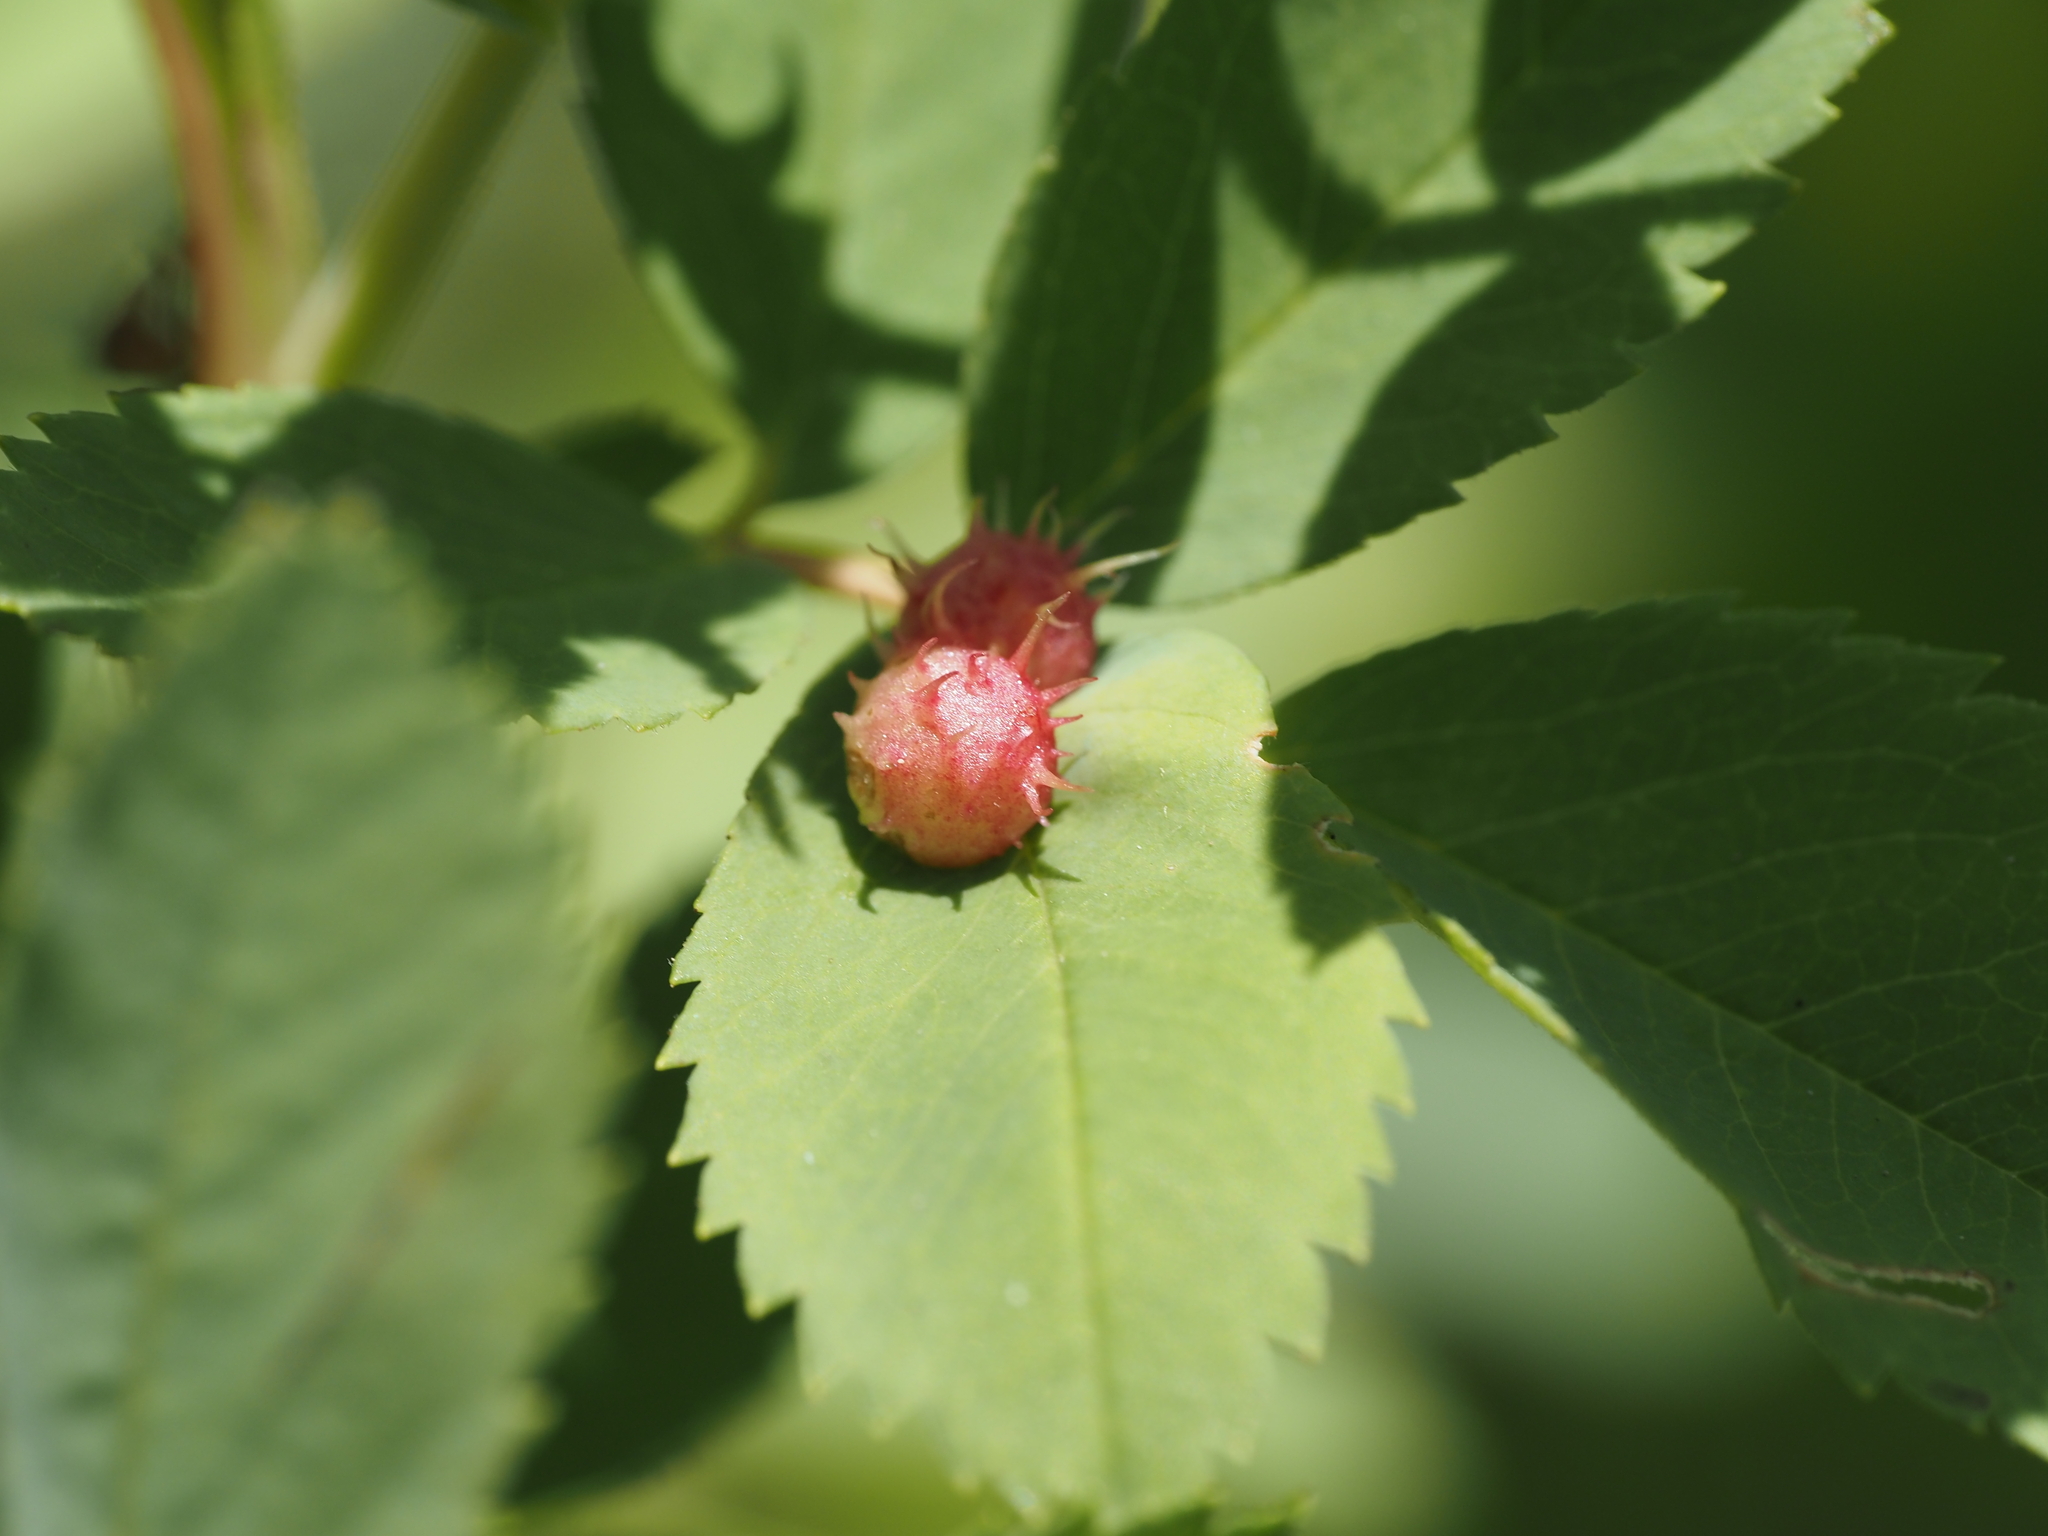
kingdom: Animalia
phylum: Arthropoda
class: Insecta
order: Hymenoptera
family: Cynipidae
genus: Diplolepis
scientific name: Diplolepis polita
